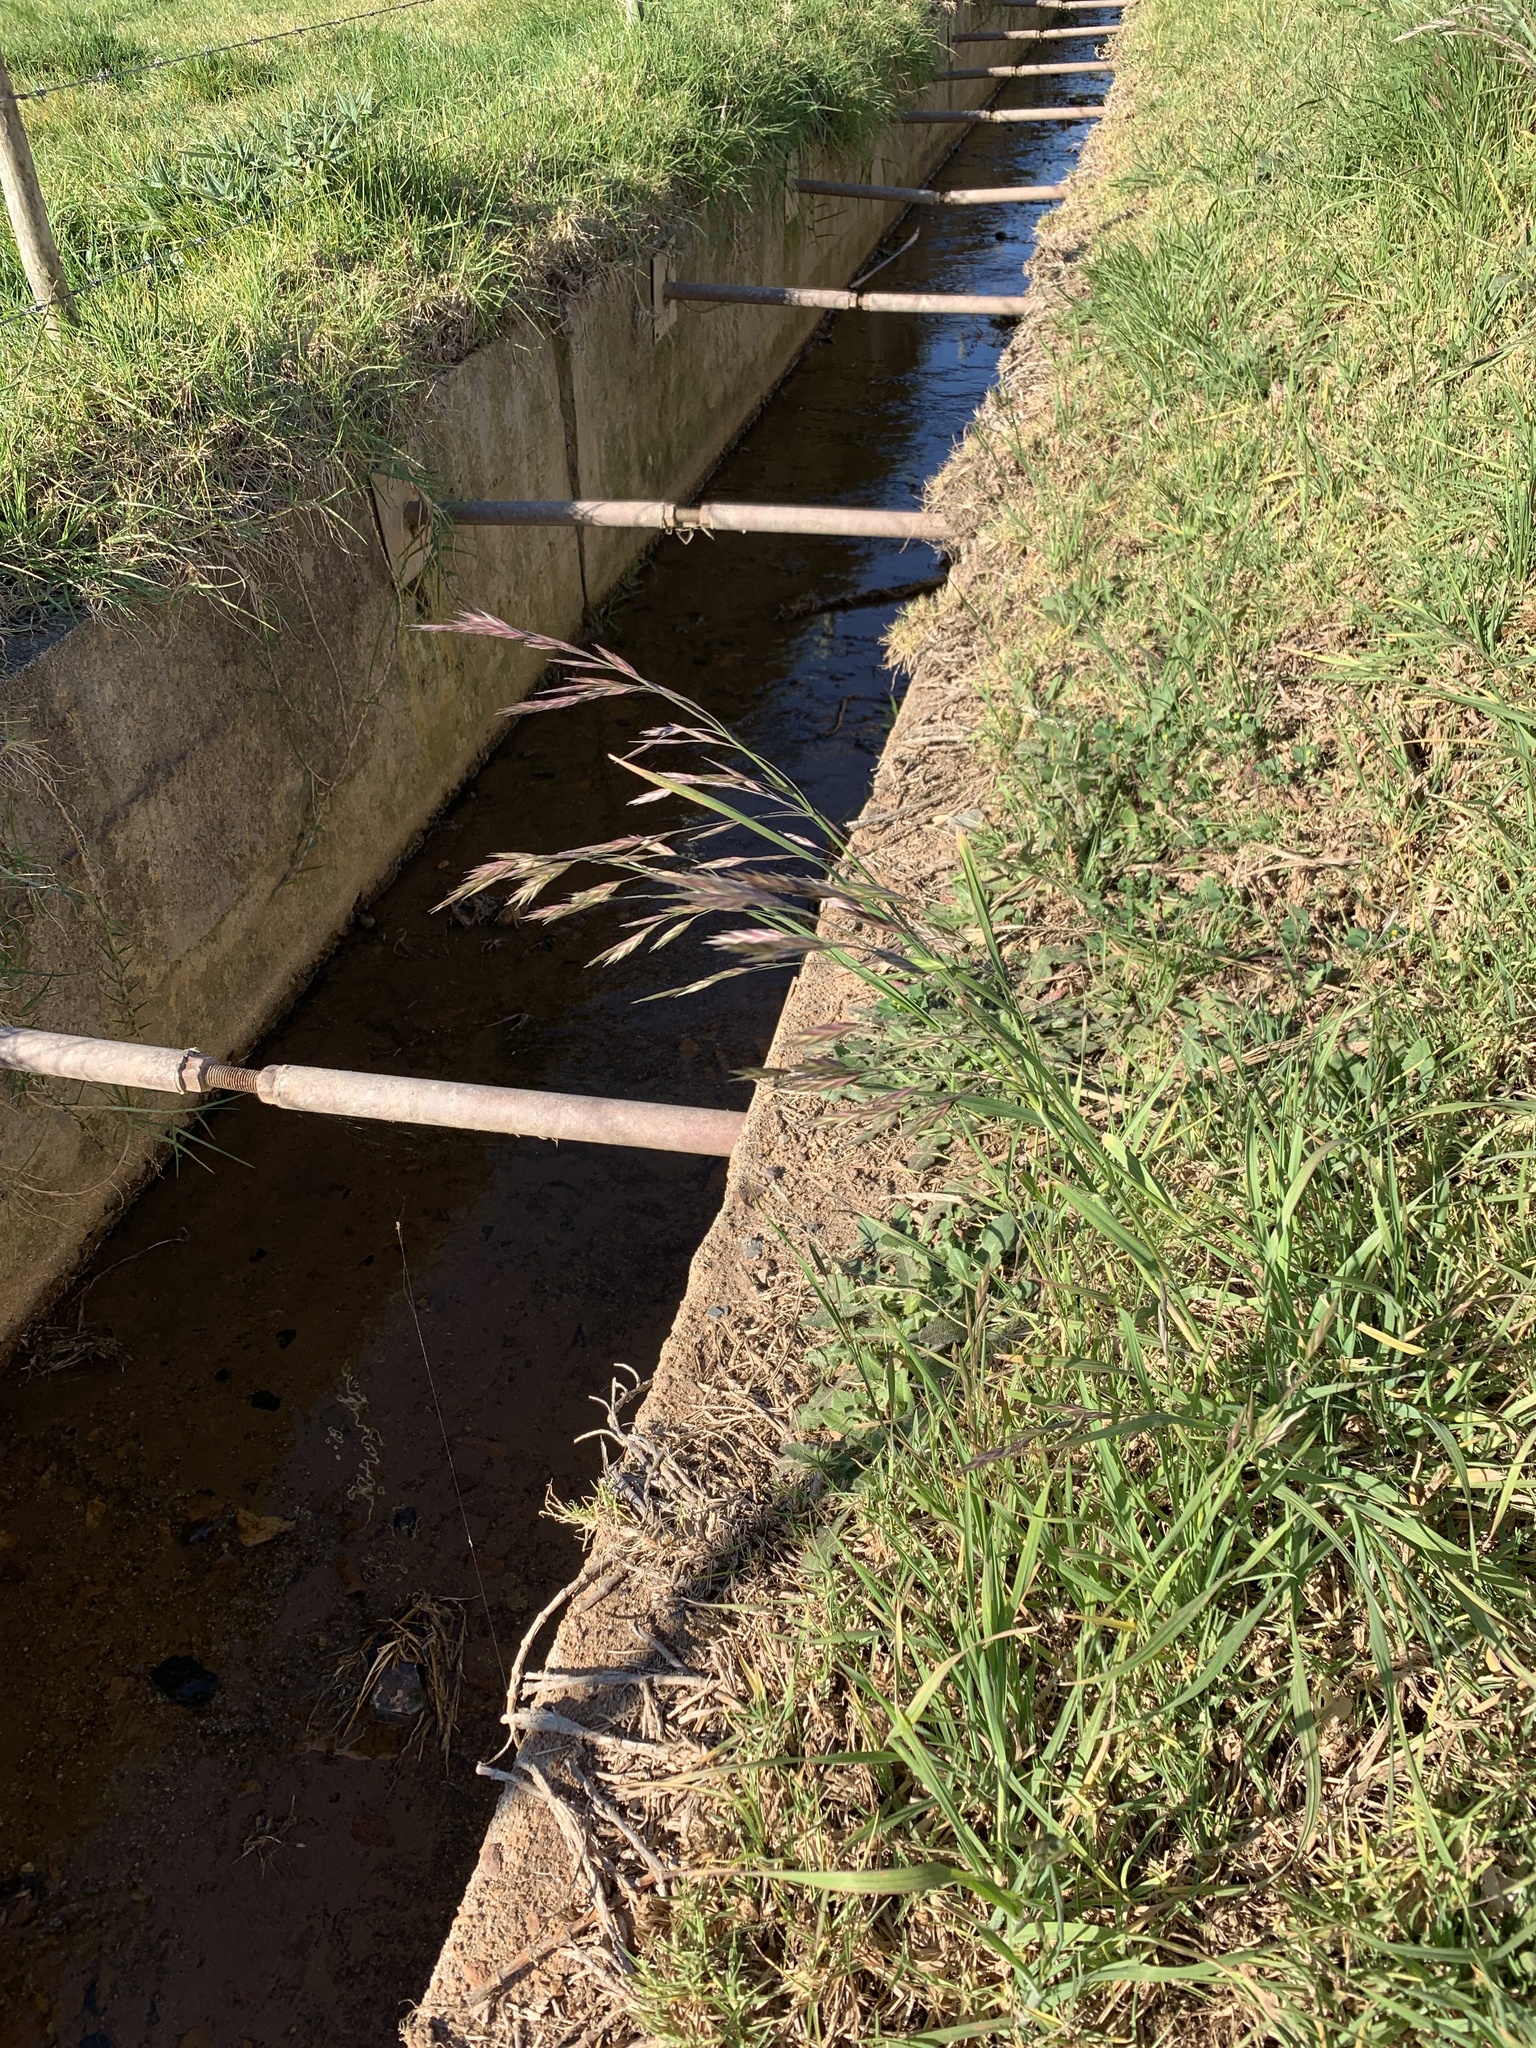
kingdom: Plantae
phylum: Tracheophyta
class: Liliopsida
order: Poales
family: Poaceae
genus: Bromus
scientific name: Bromus catharticus
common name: Rescuegrass
